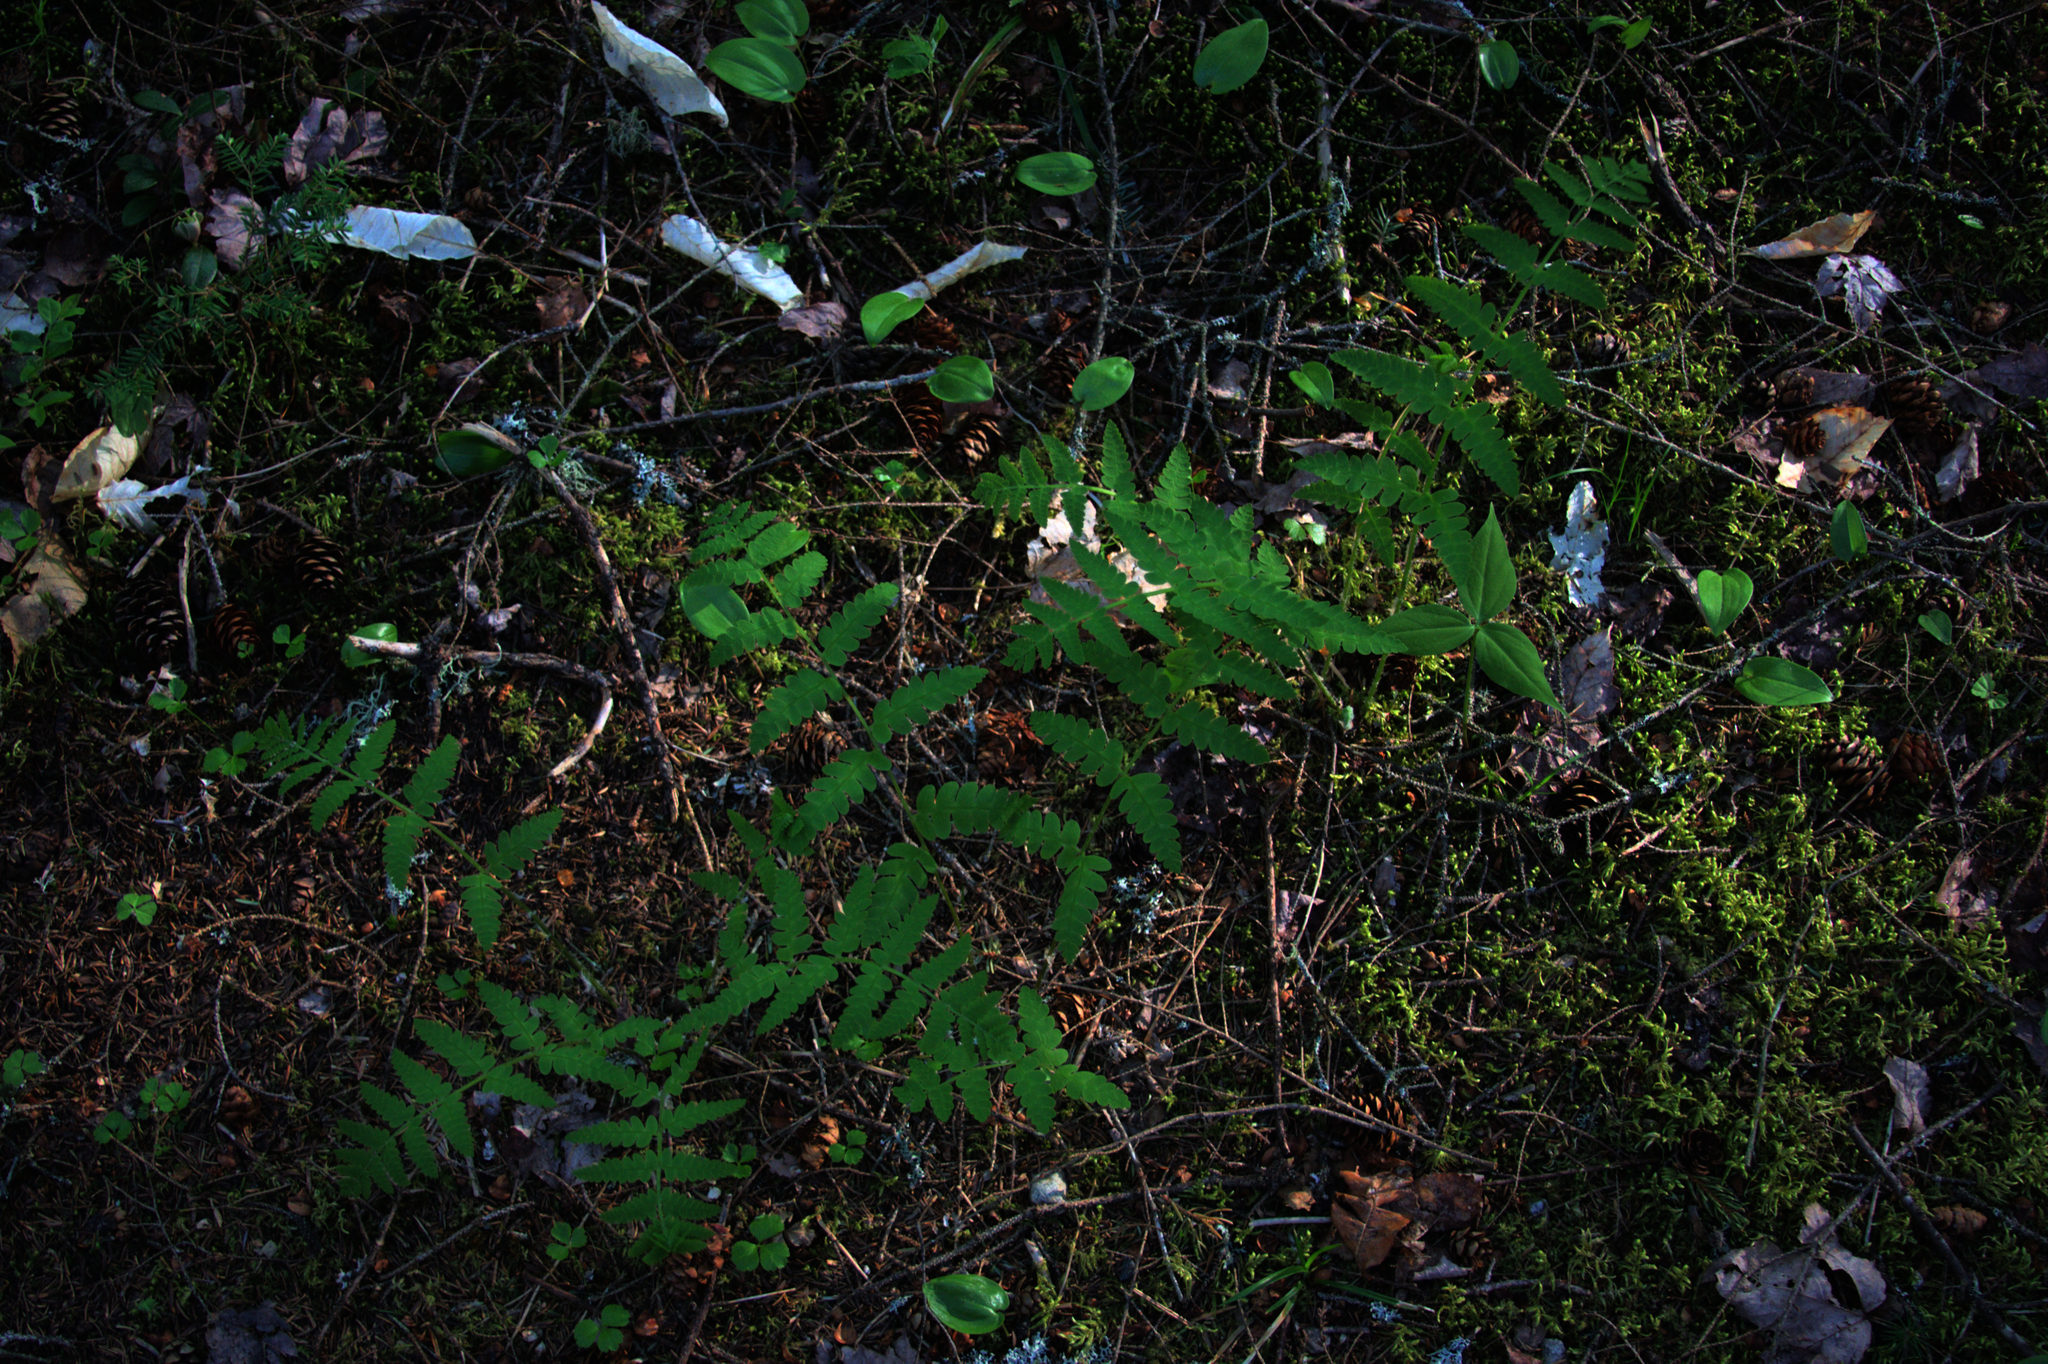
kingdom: Plantae
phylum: Tracheophyta
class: Polypodiopsida
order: Osmundales
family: Osmundaceae
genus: Claytosmunda
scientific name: Claytosmunda claytoniana
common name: Clayton's fern
